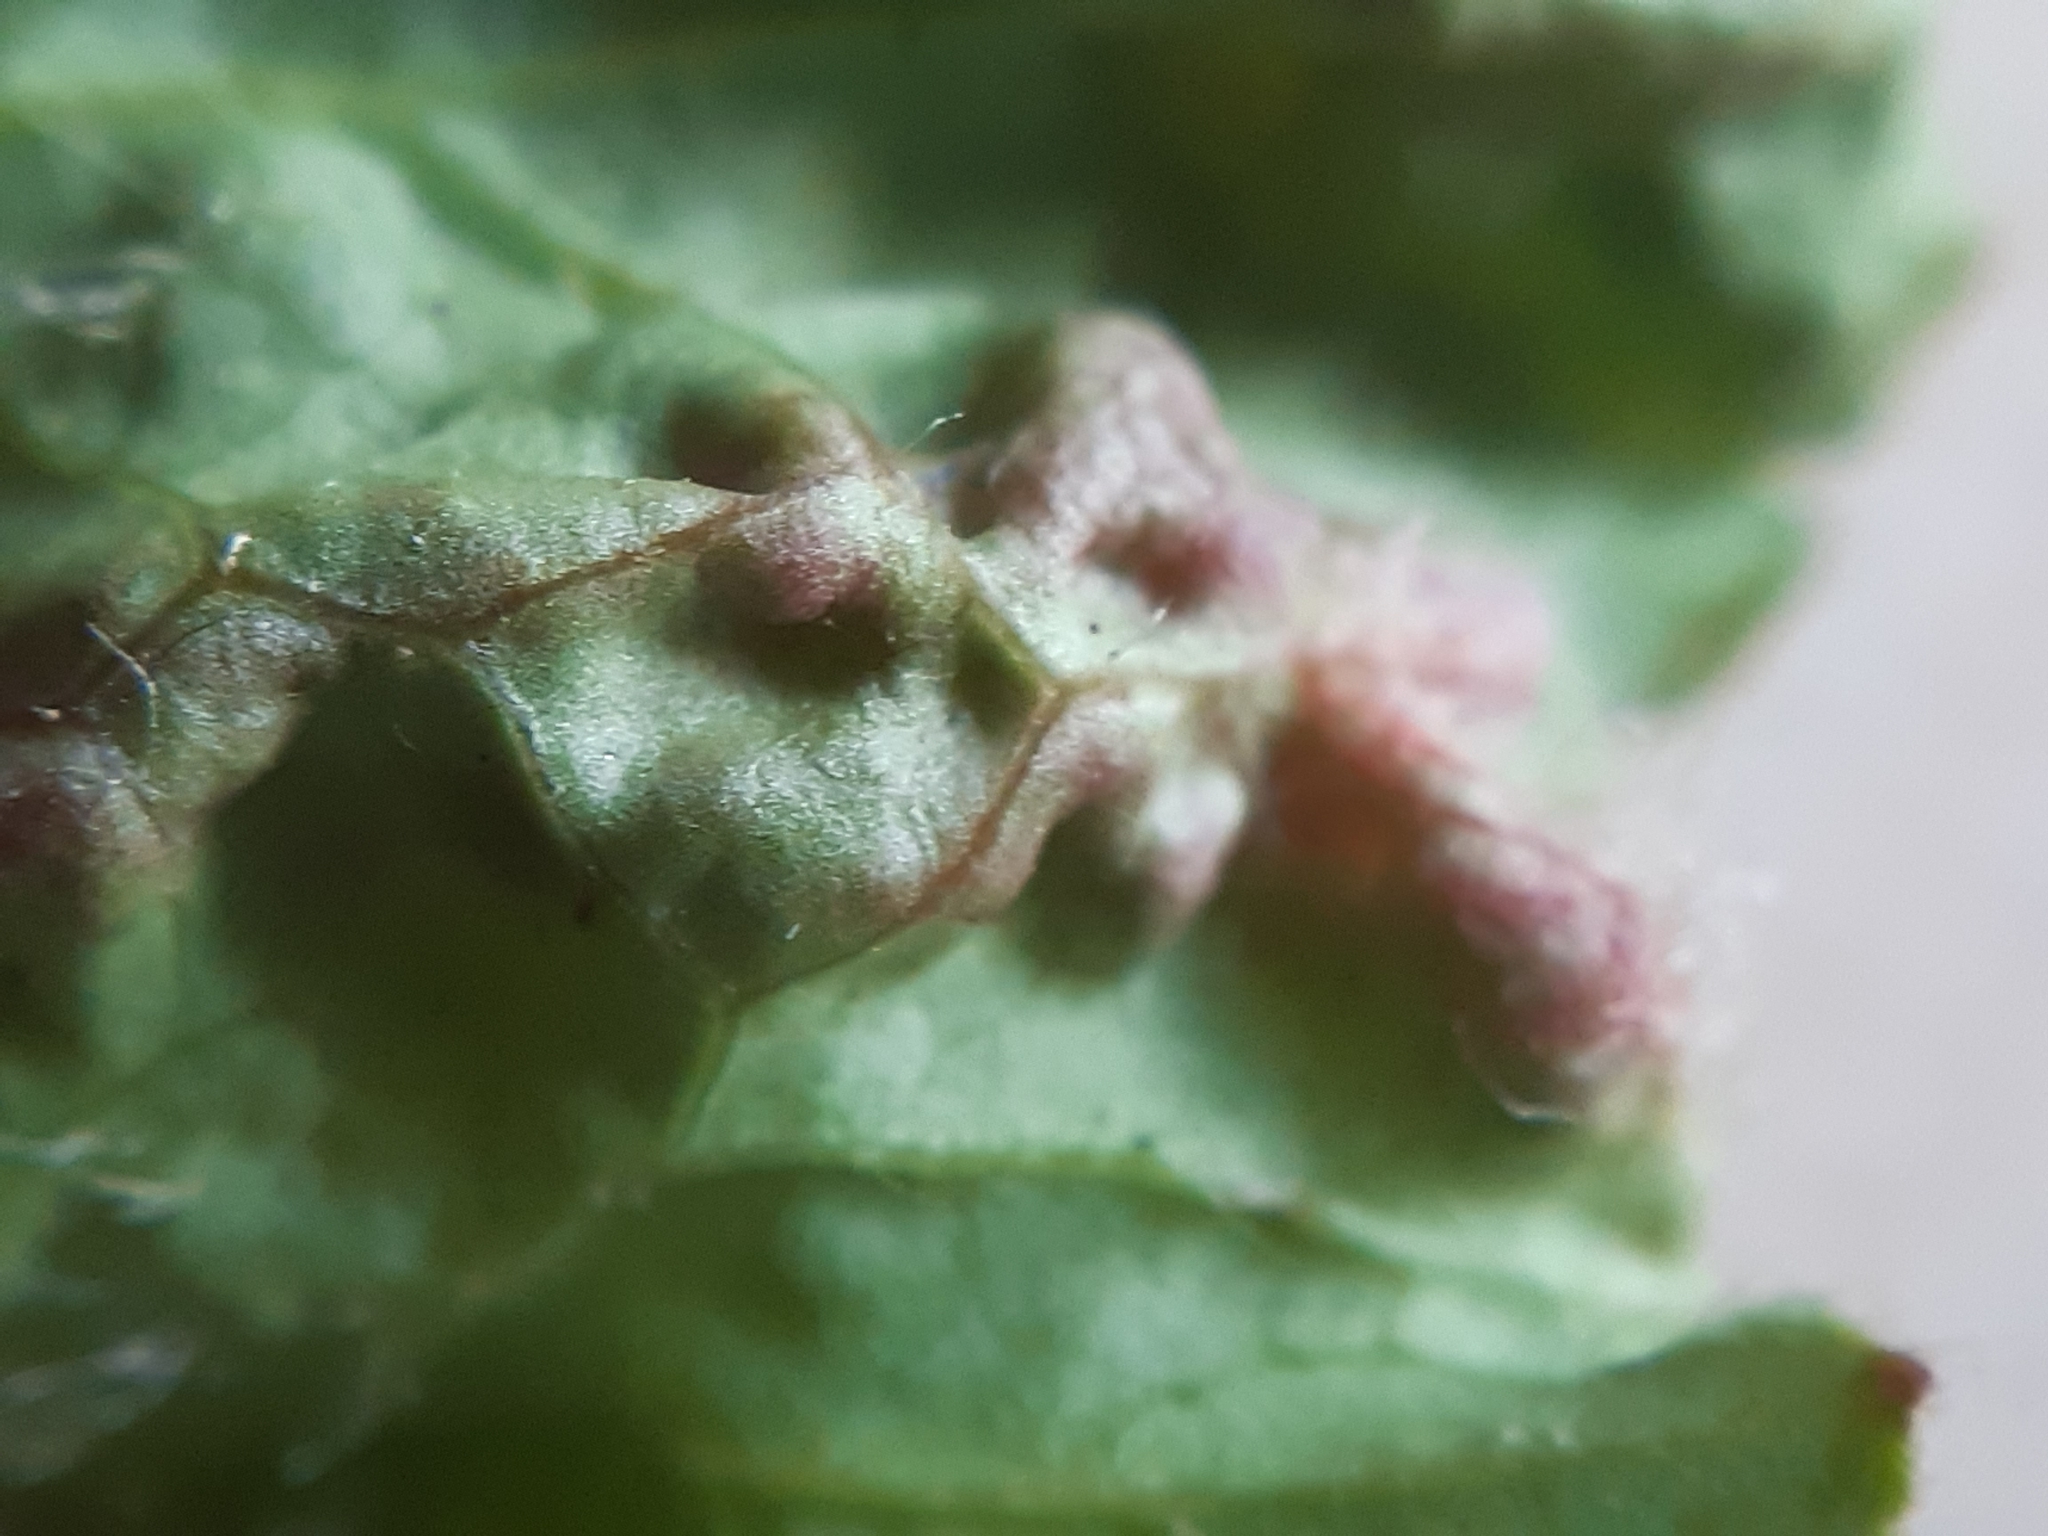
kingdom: Animalia
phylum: Arthropoda
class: Arachnida
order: Trombidiformes
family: Eriophyidae
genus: Cecidophyes
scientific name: Cecidophyes nudus
